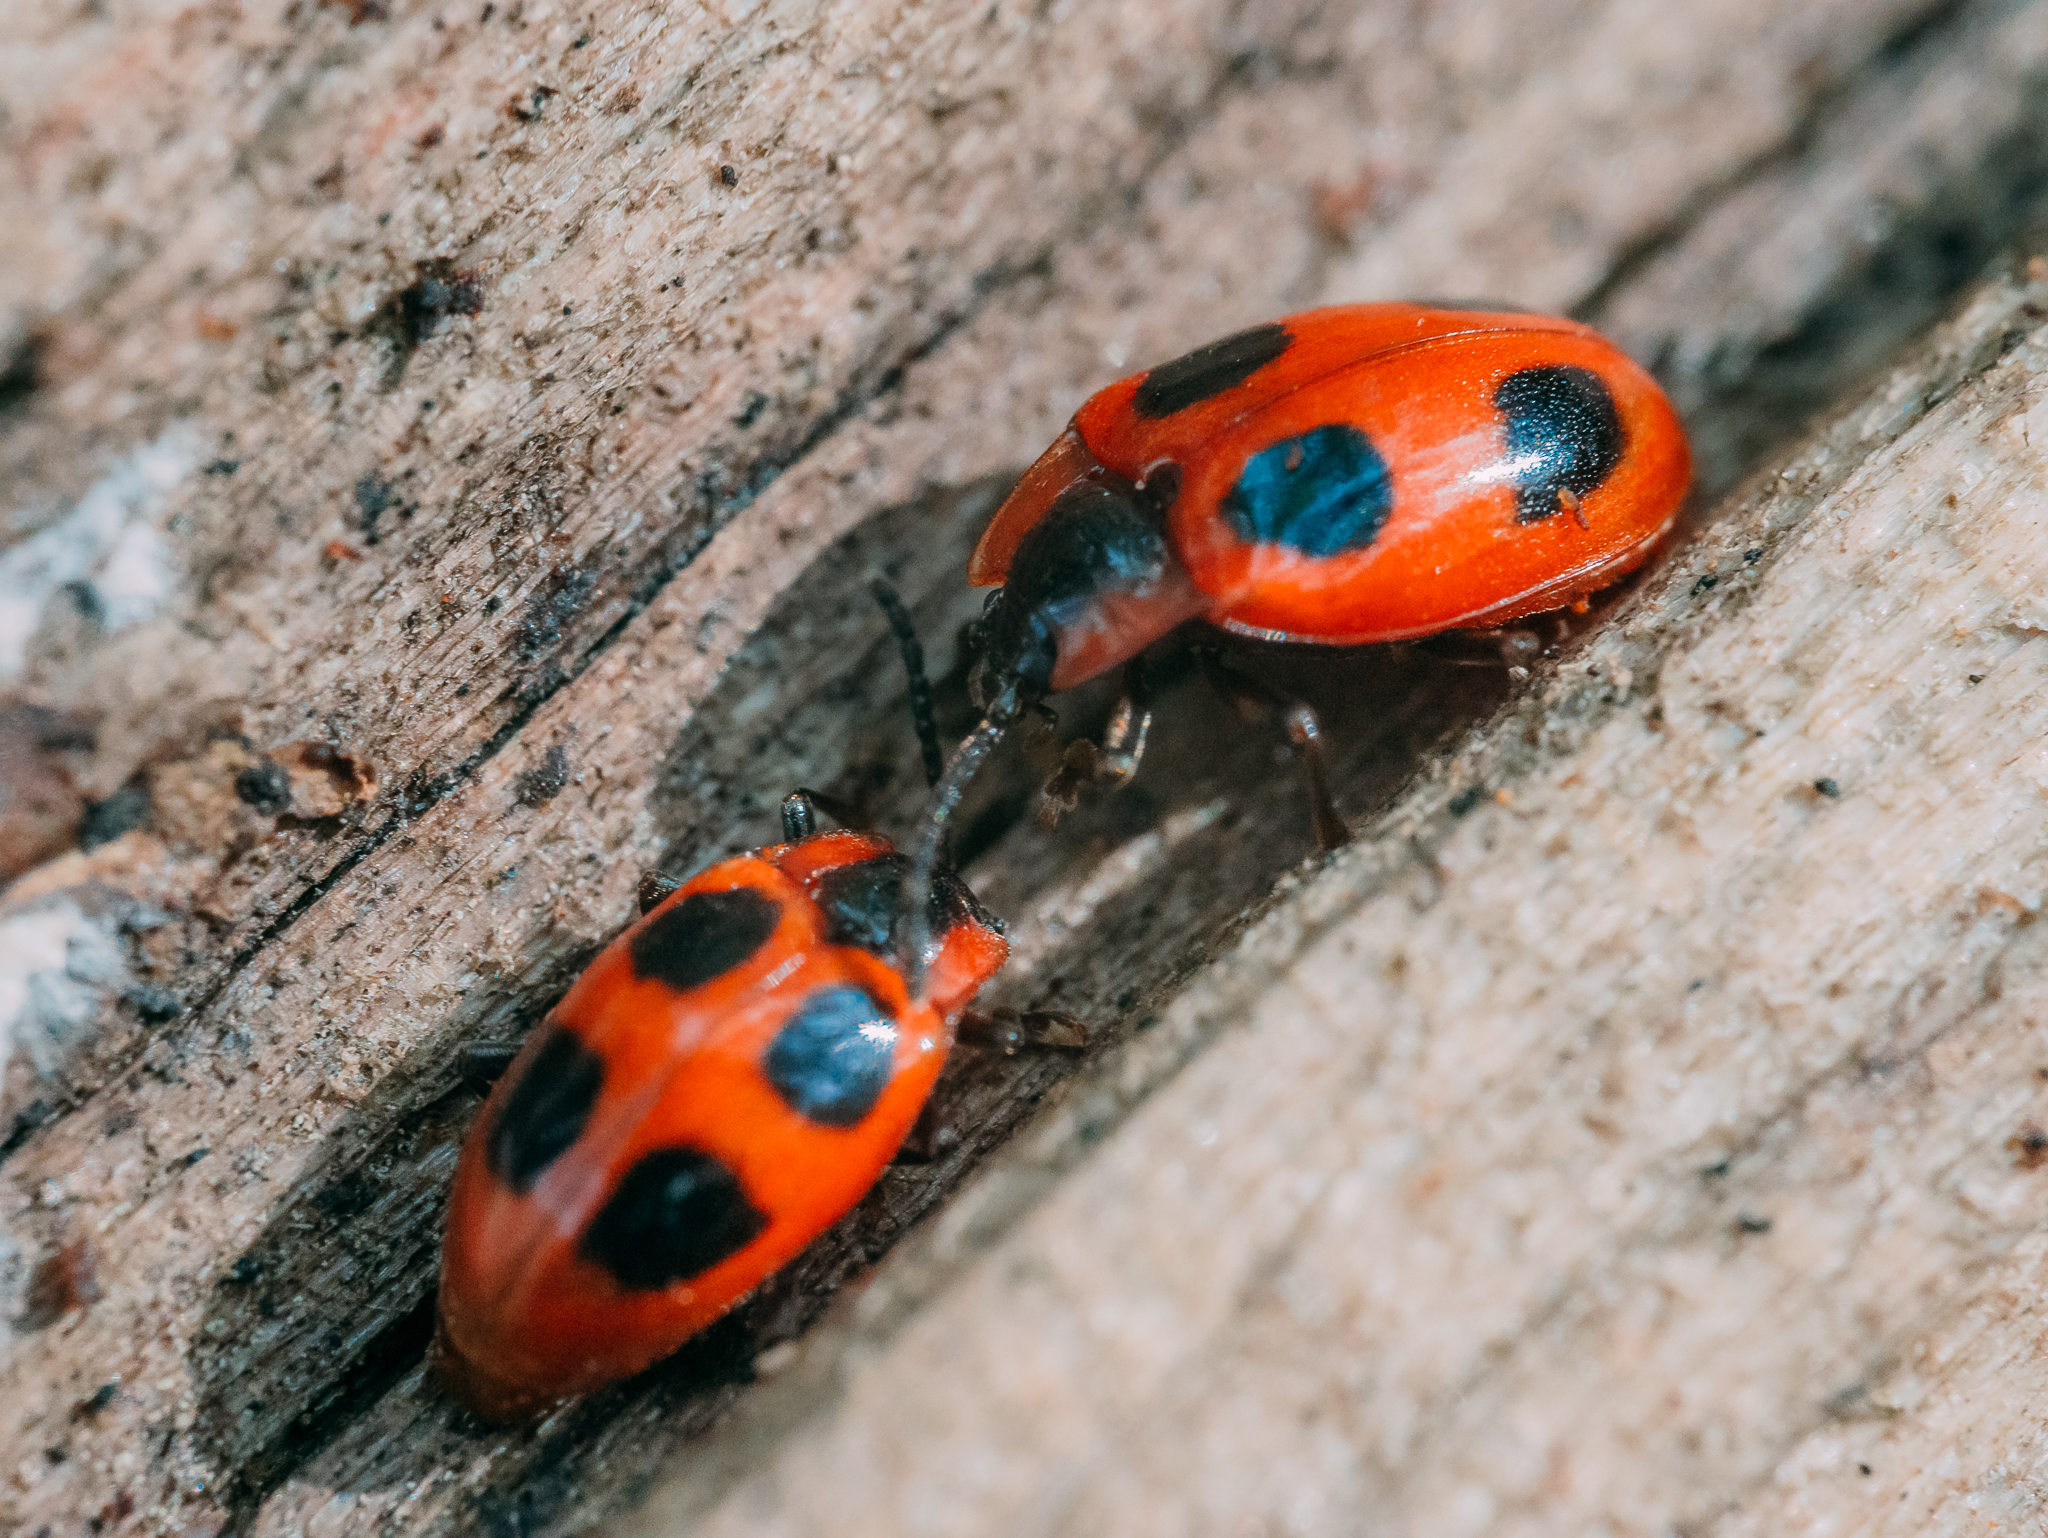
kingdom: Animalia
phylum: Arthropoda
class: Insecta
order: Coleoptera
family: Endomychidae
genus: Endomychus
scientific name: Endomychus coccineus
